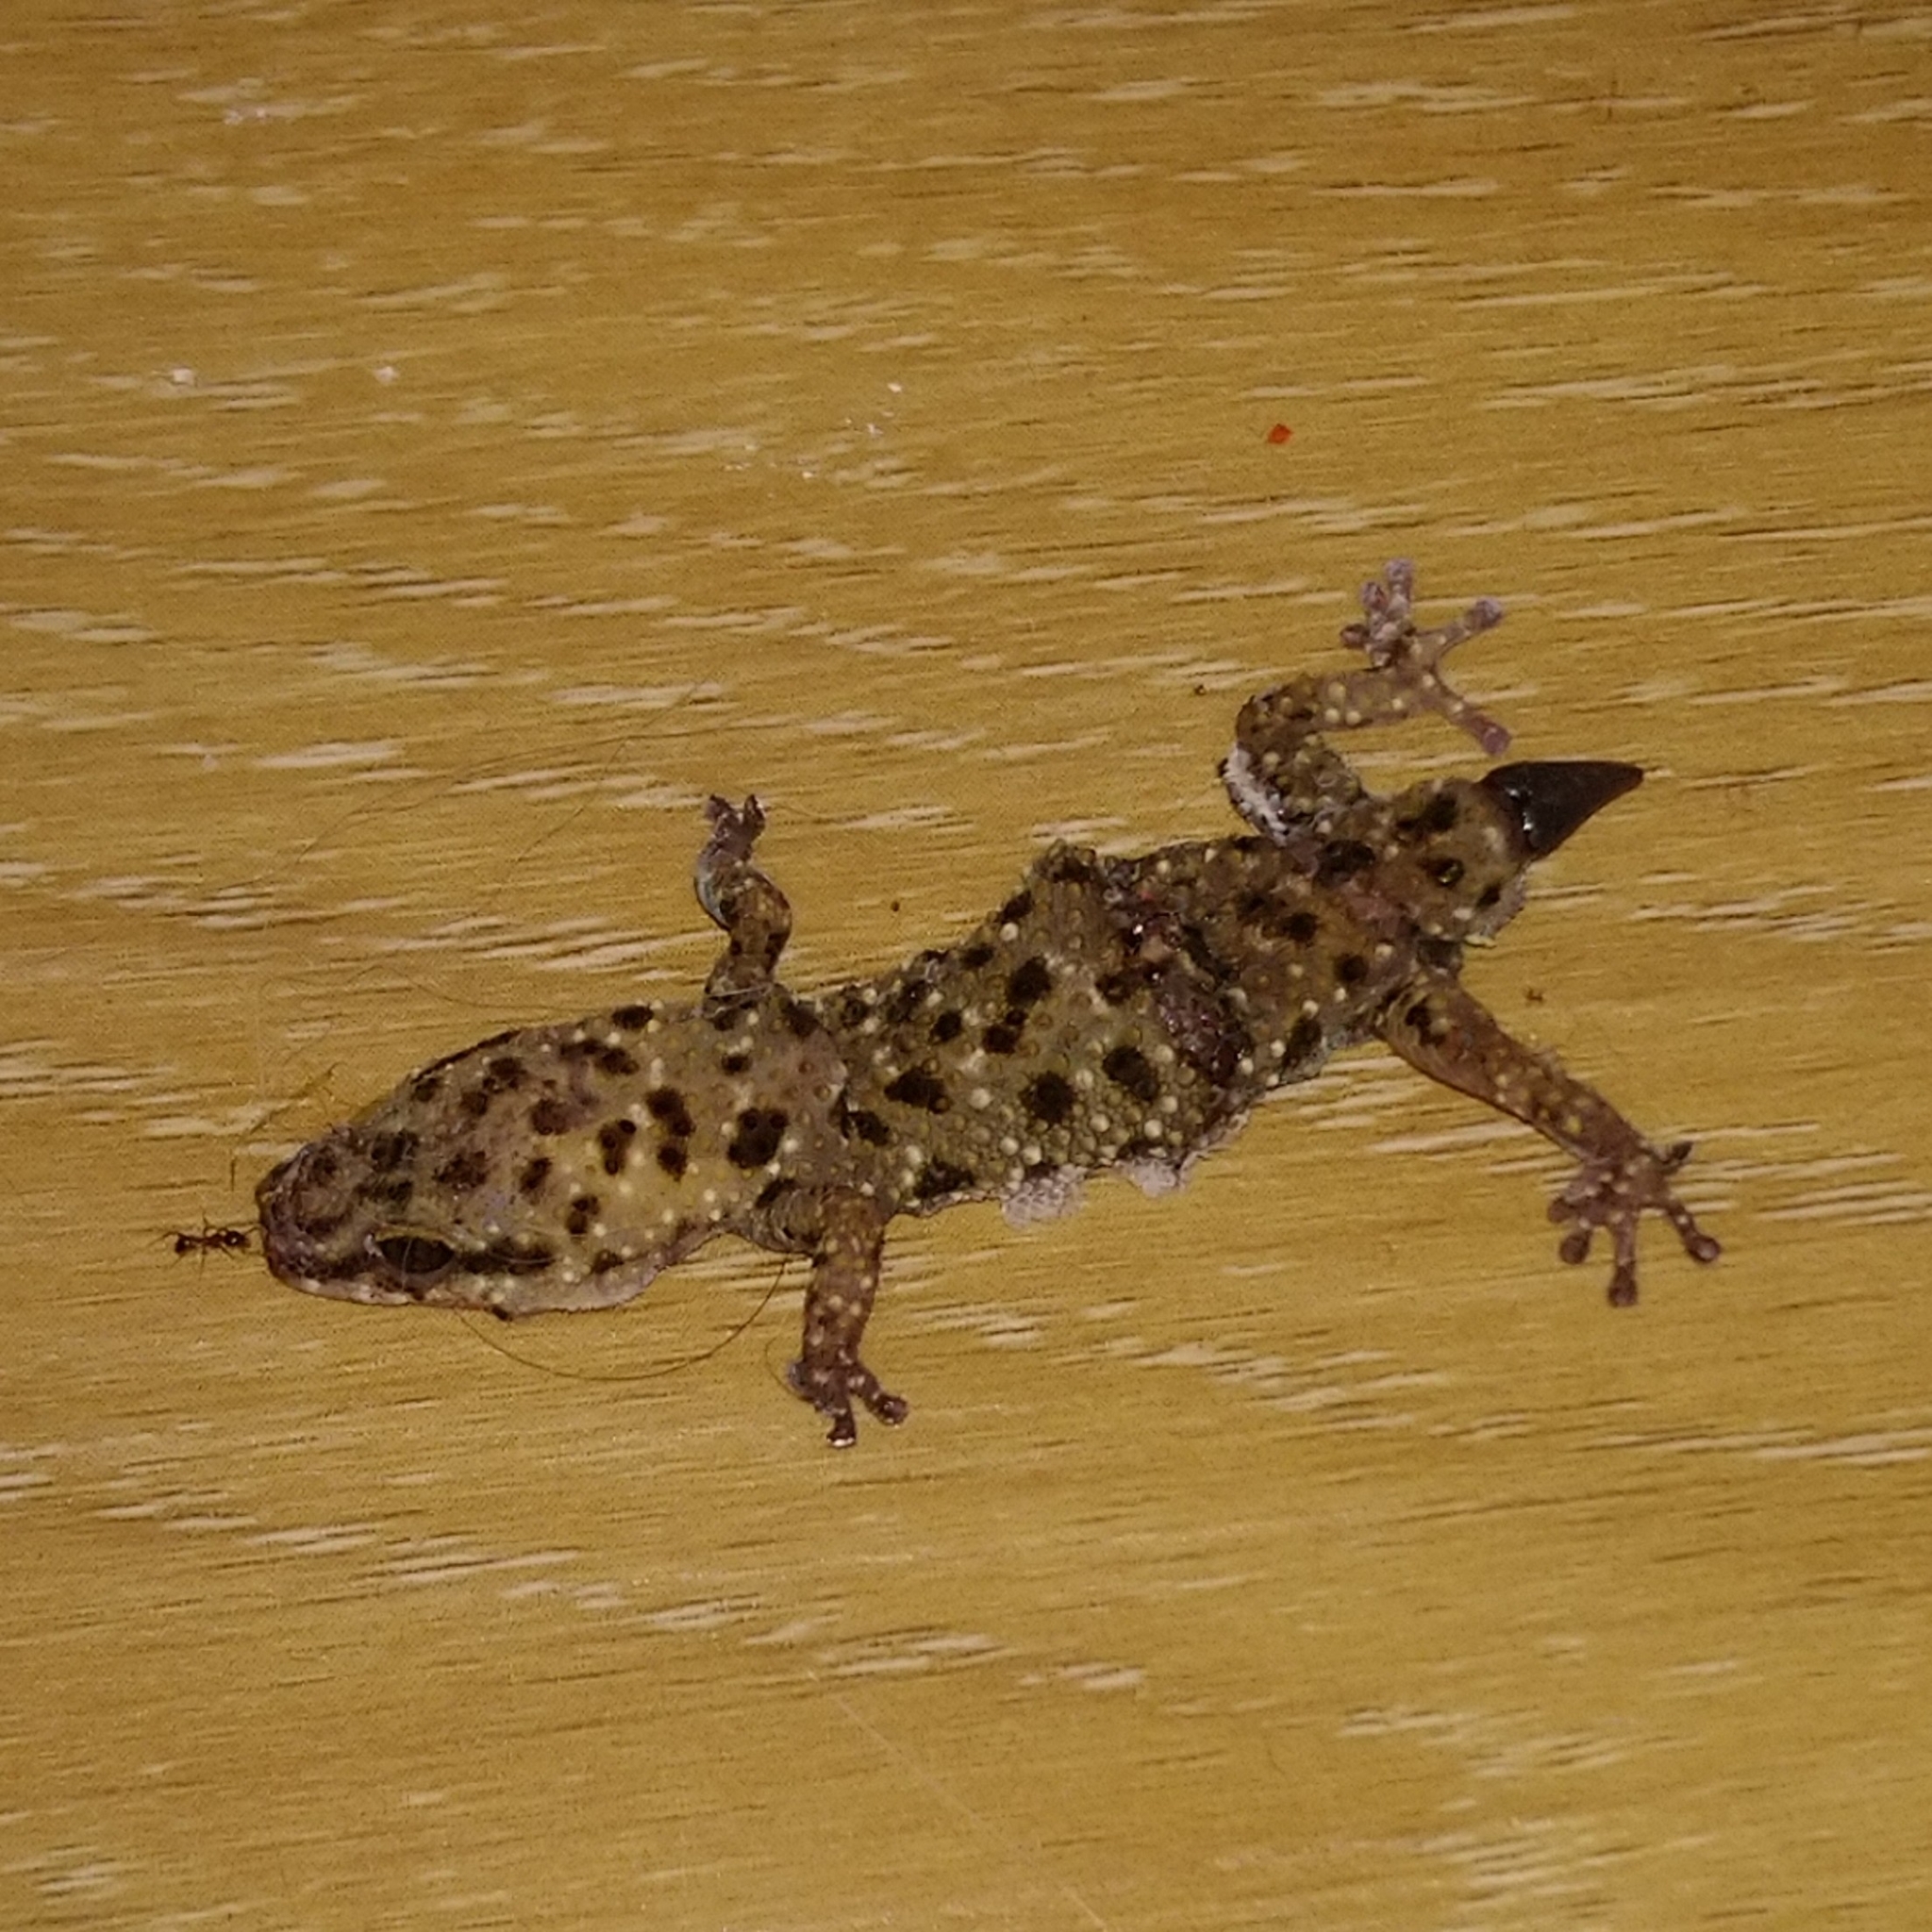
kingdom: Animalia
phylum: Chordata
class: Squamata
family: Gekkonidae
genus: Pachydactylus
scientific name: Pachydactylus capensis
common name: Cape gecko
